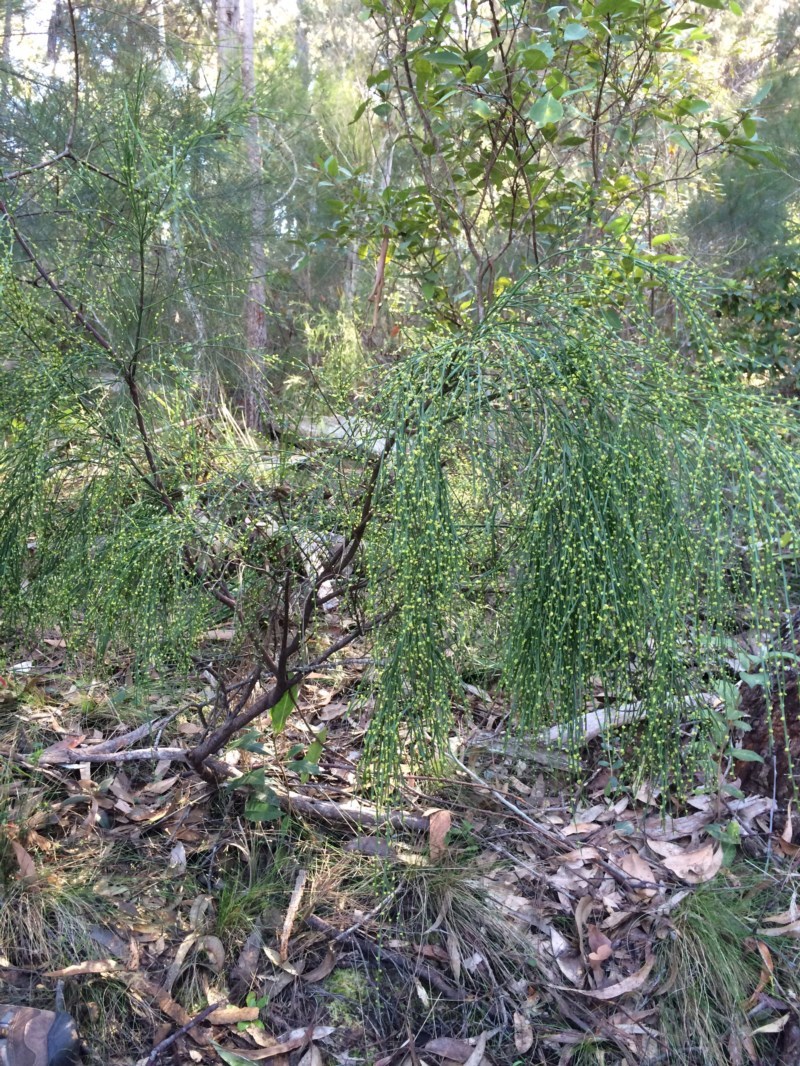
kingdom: Plantae
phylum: Tracheophyta
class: Magnoliopsida
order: Santalales
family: Santalaceae
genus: Exocarpos
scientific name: Exocarpos strictus
